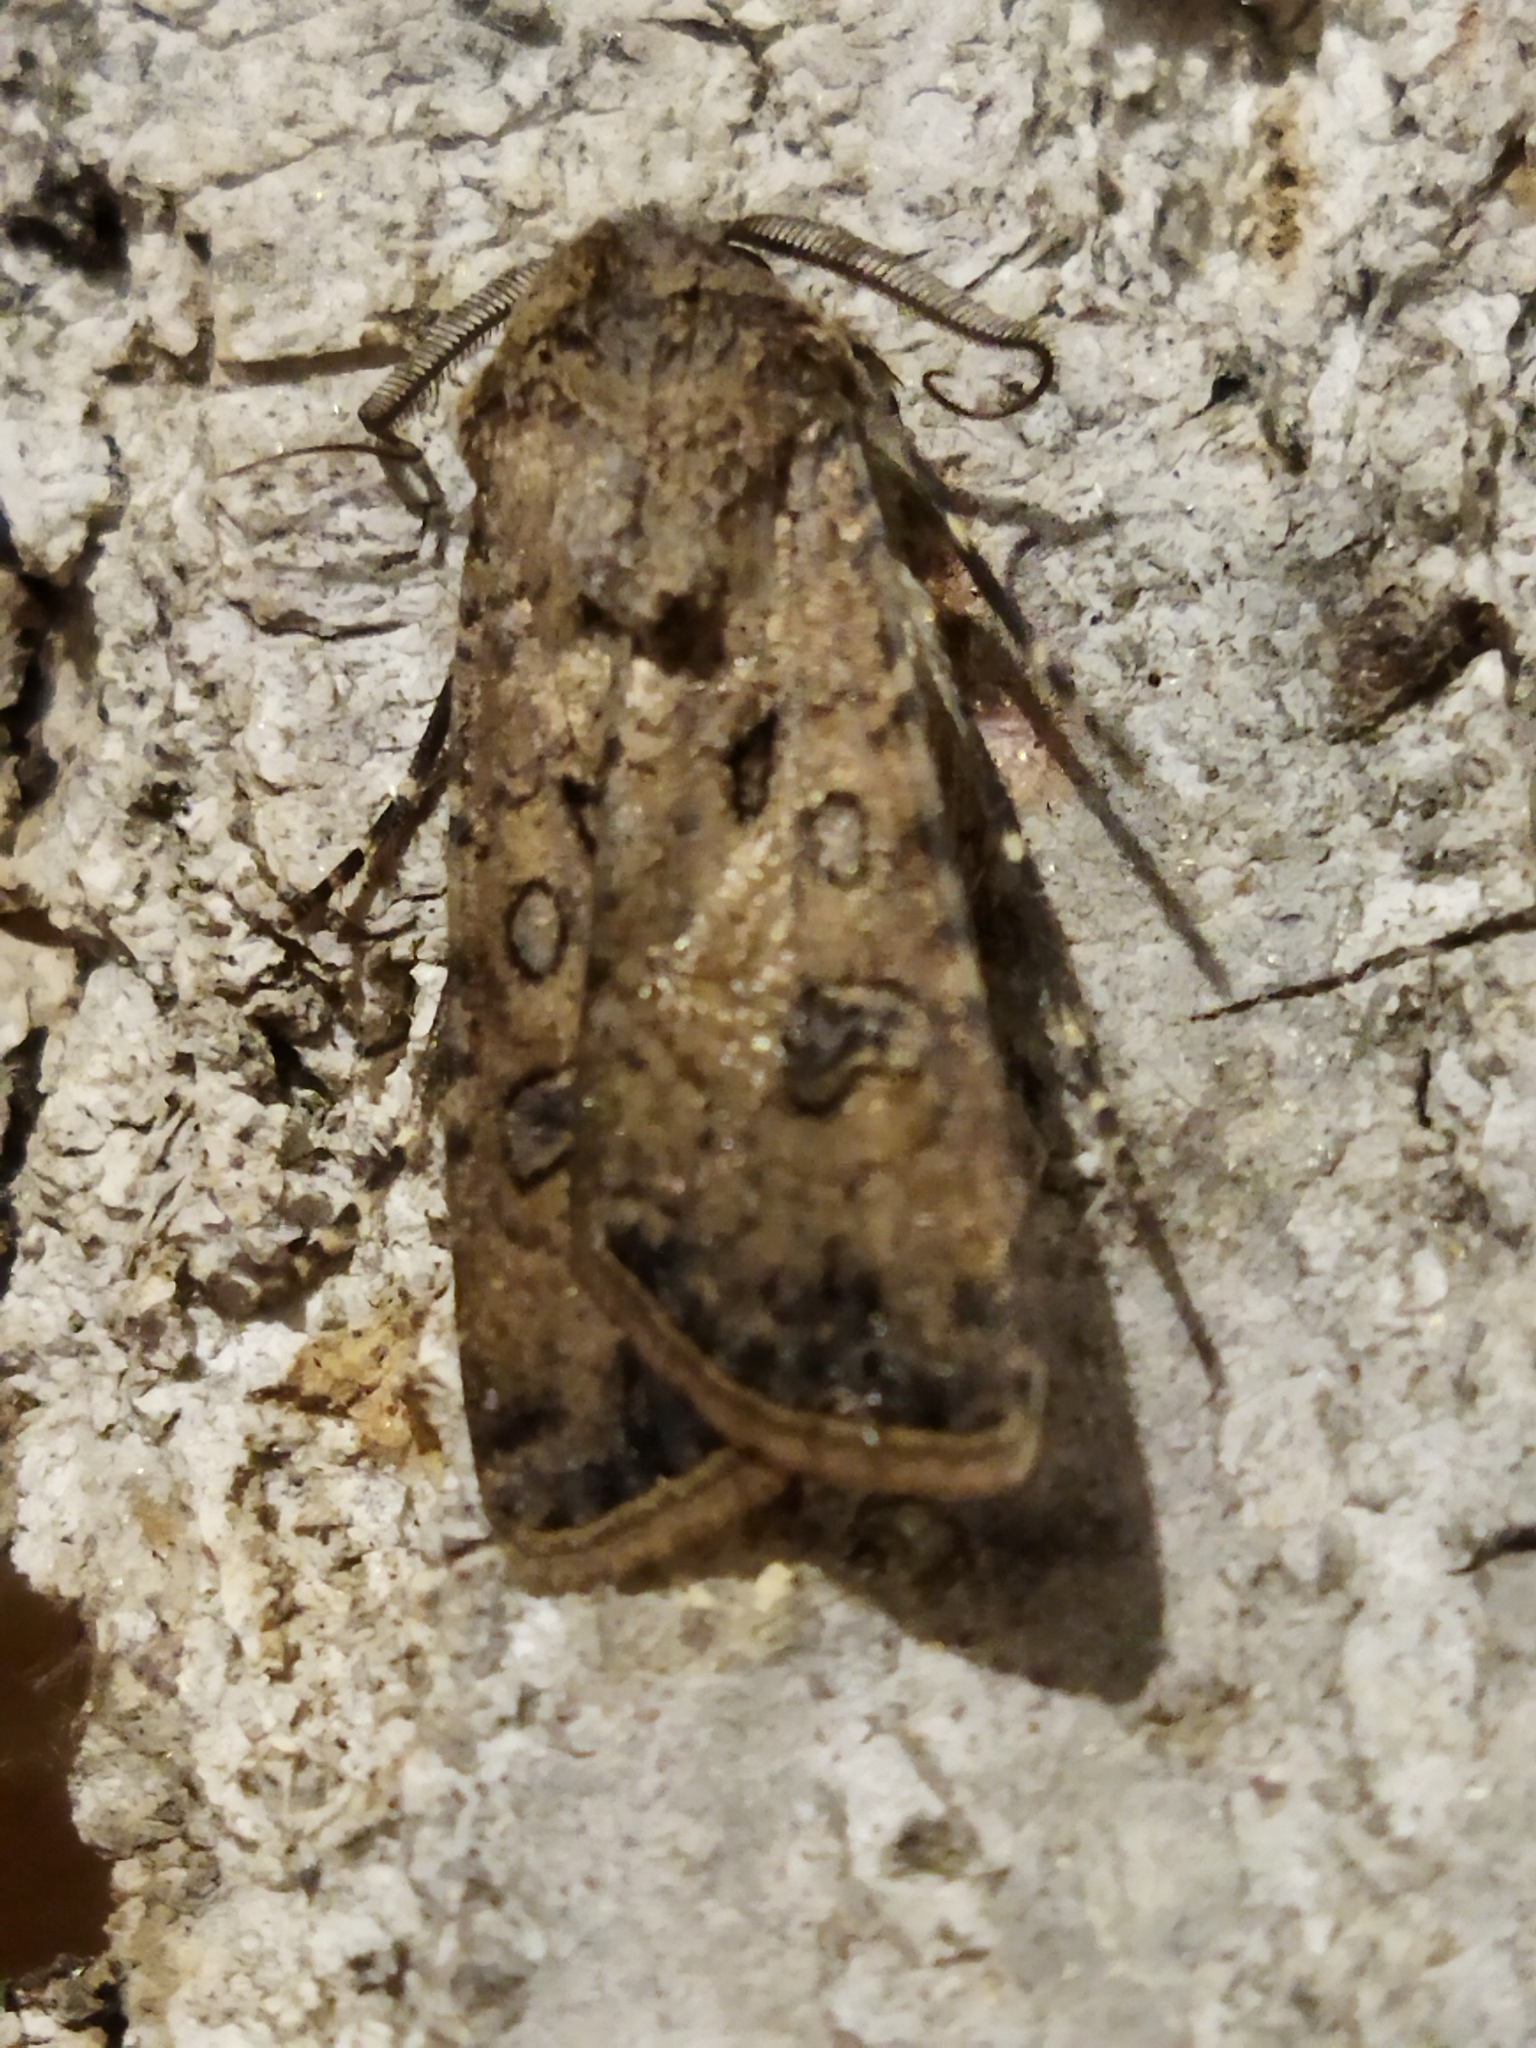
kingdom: Animalia
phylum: Arthropoda
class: Insecta
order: Lepidoptera
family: Noctuidae
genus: Agrotis
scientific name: Agrotis segetum
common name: Turnip moth
